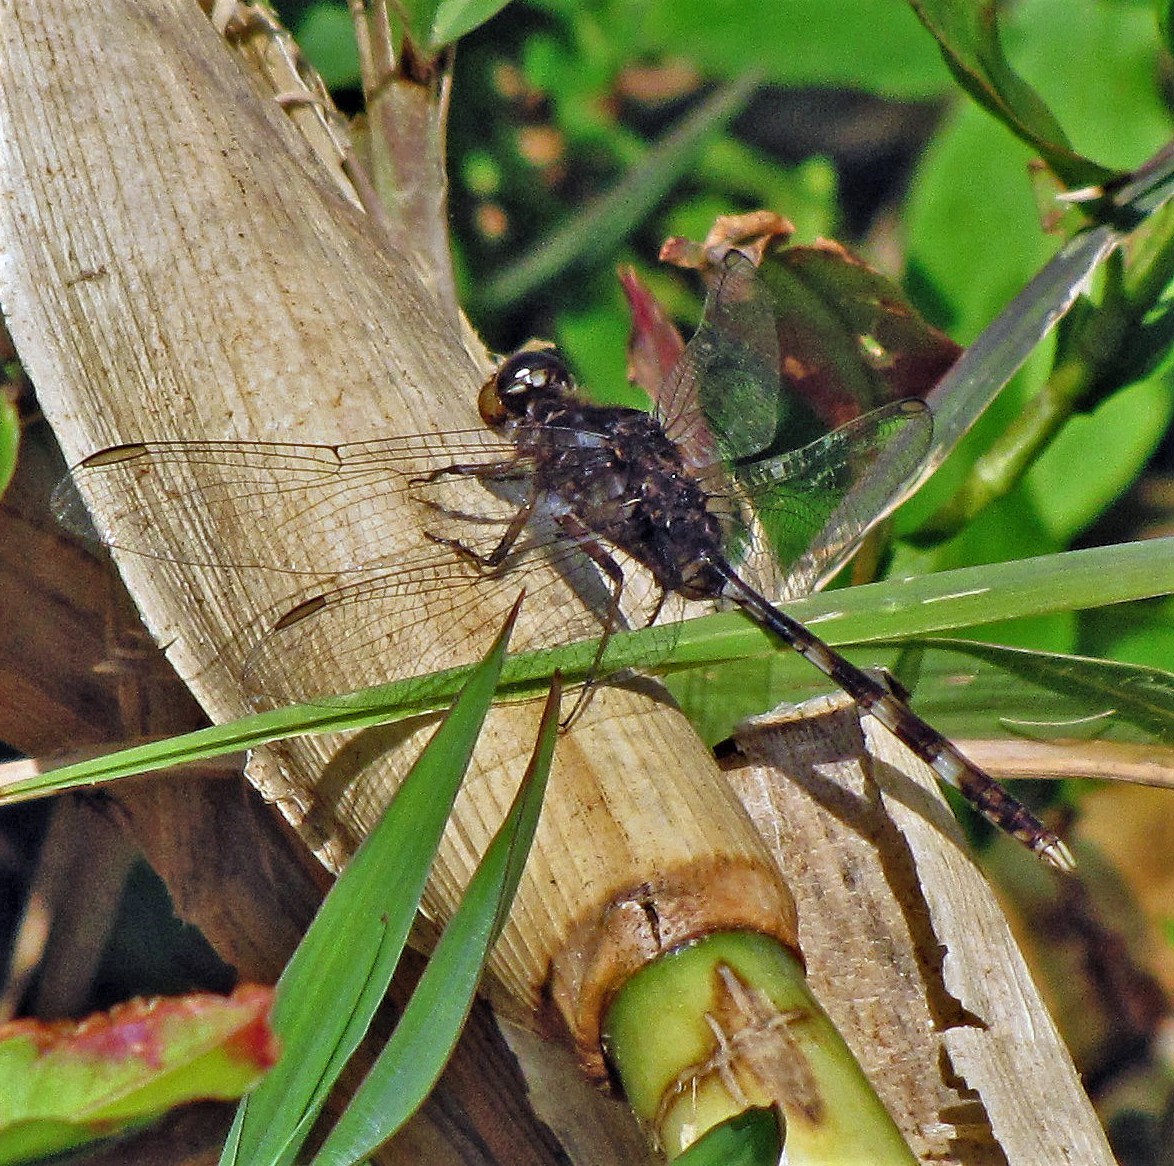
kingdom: Animalia
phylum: Arthropoda
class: Insecta
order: Odonata
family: Libellulidae
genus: Erythemis
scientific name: Erythemis plebeja
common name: Pin-tailed pondhawk
